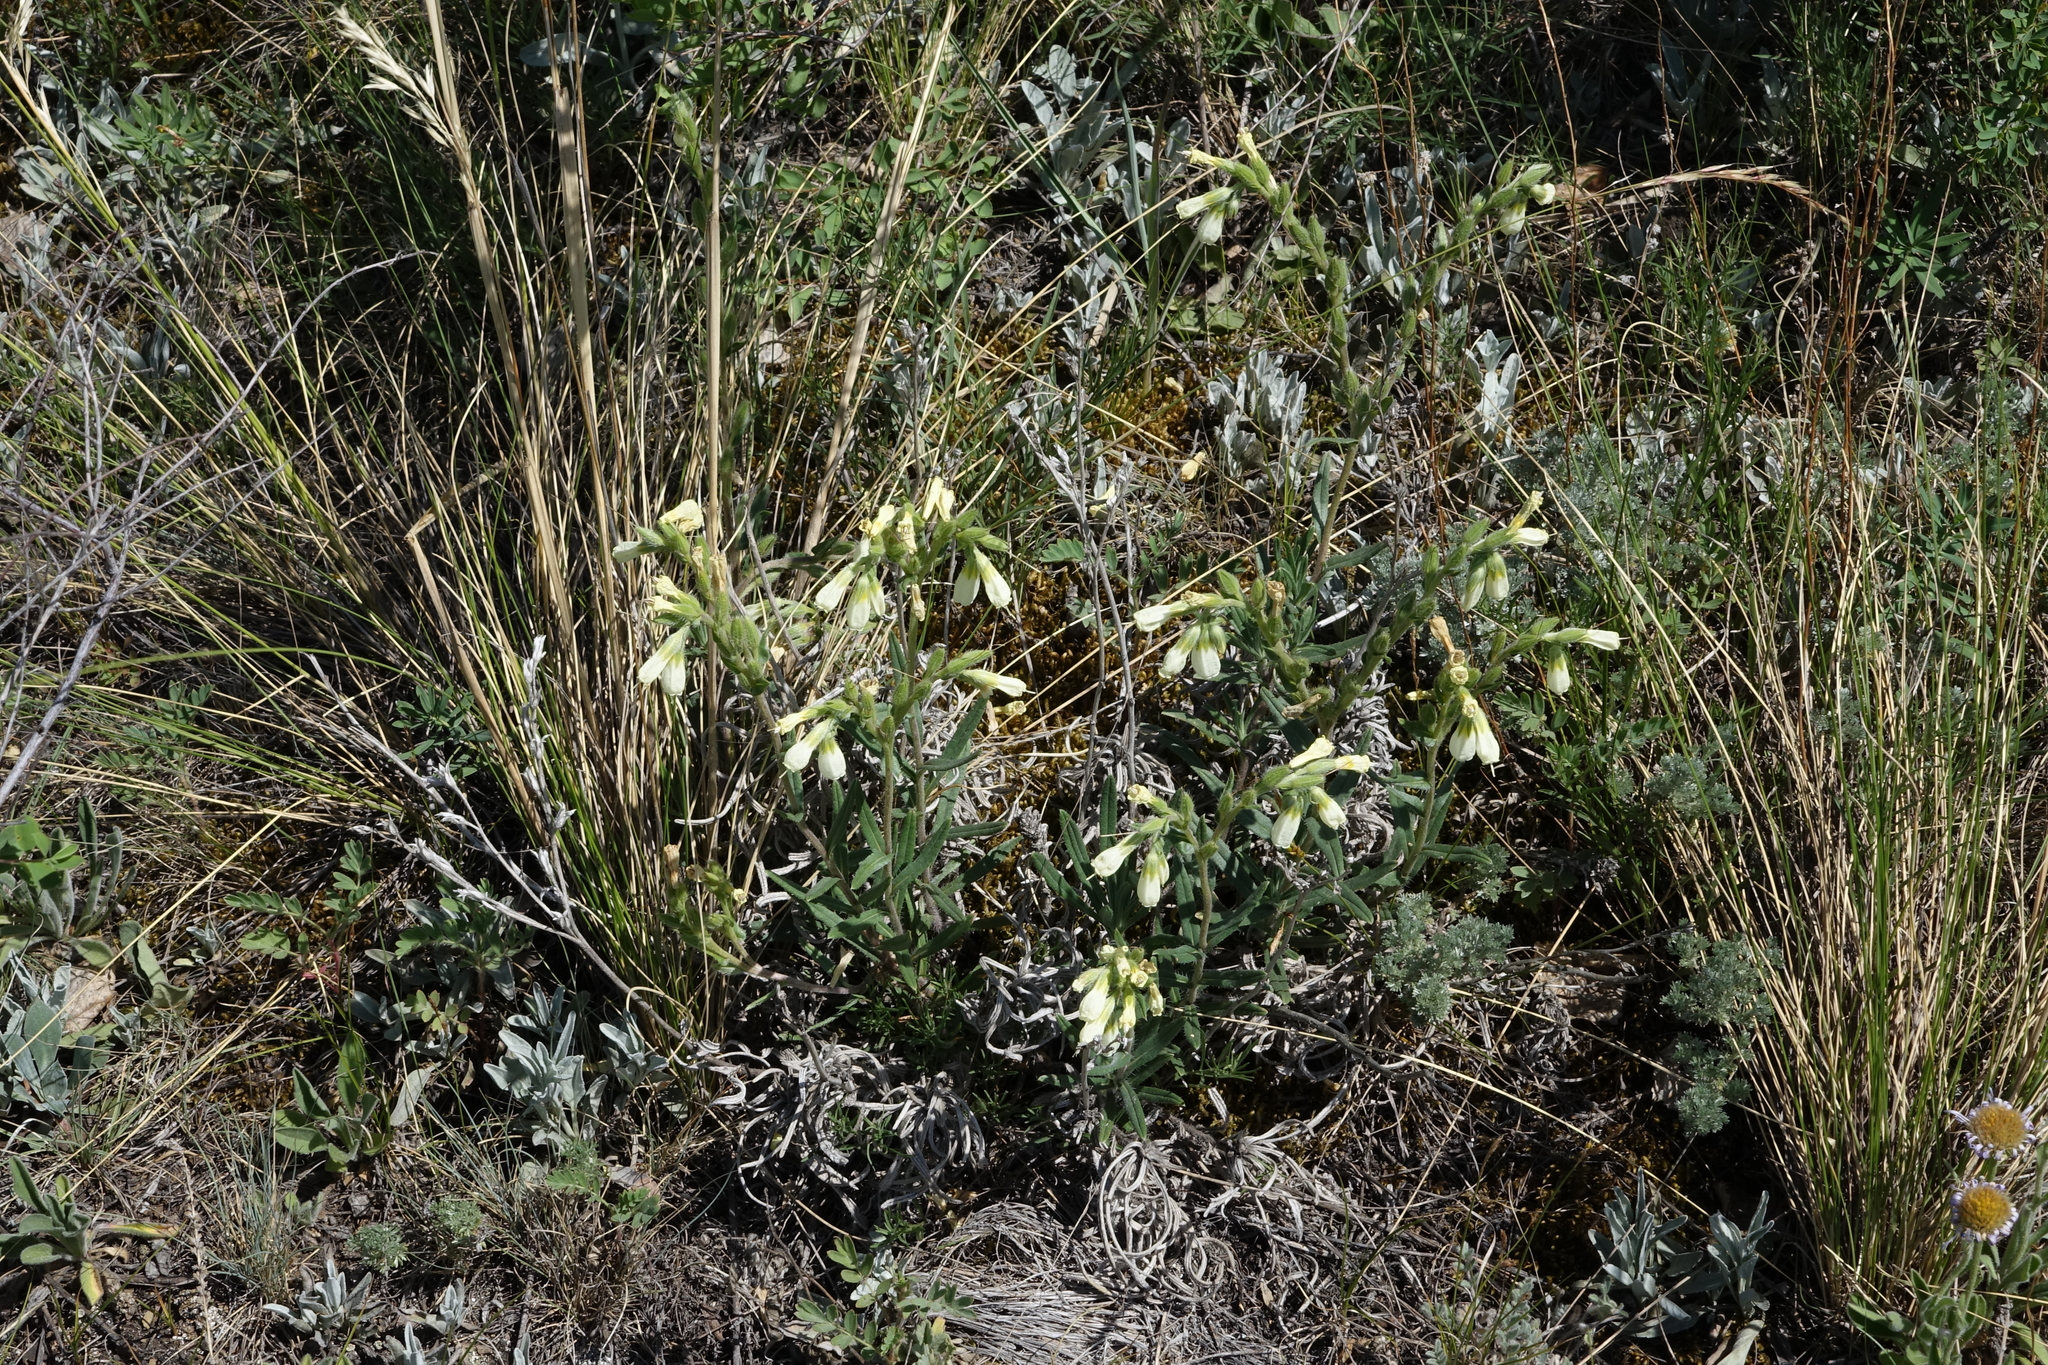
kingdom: Plantae
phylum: Tracheophyta
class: Magnoliopsida
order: Boraginales
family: Boraginaceae
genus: Onosma
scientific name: Onosma simplicissima
